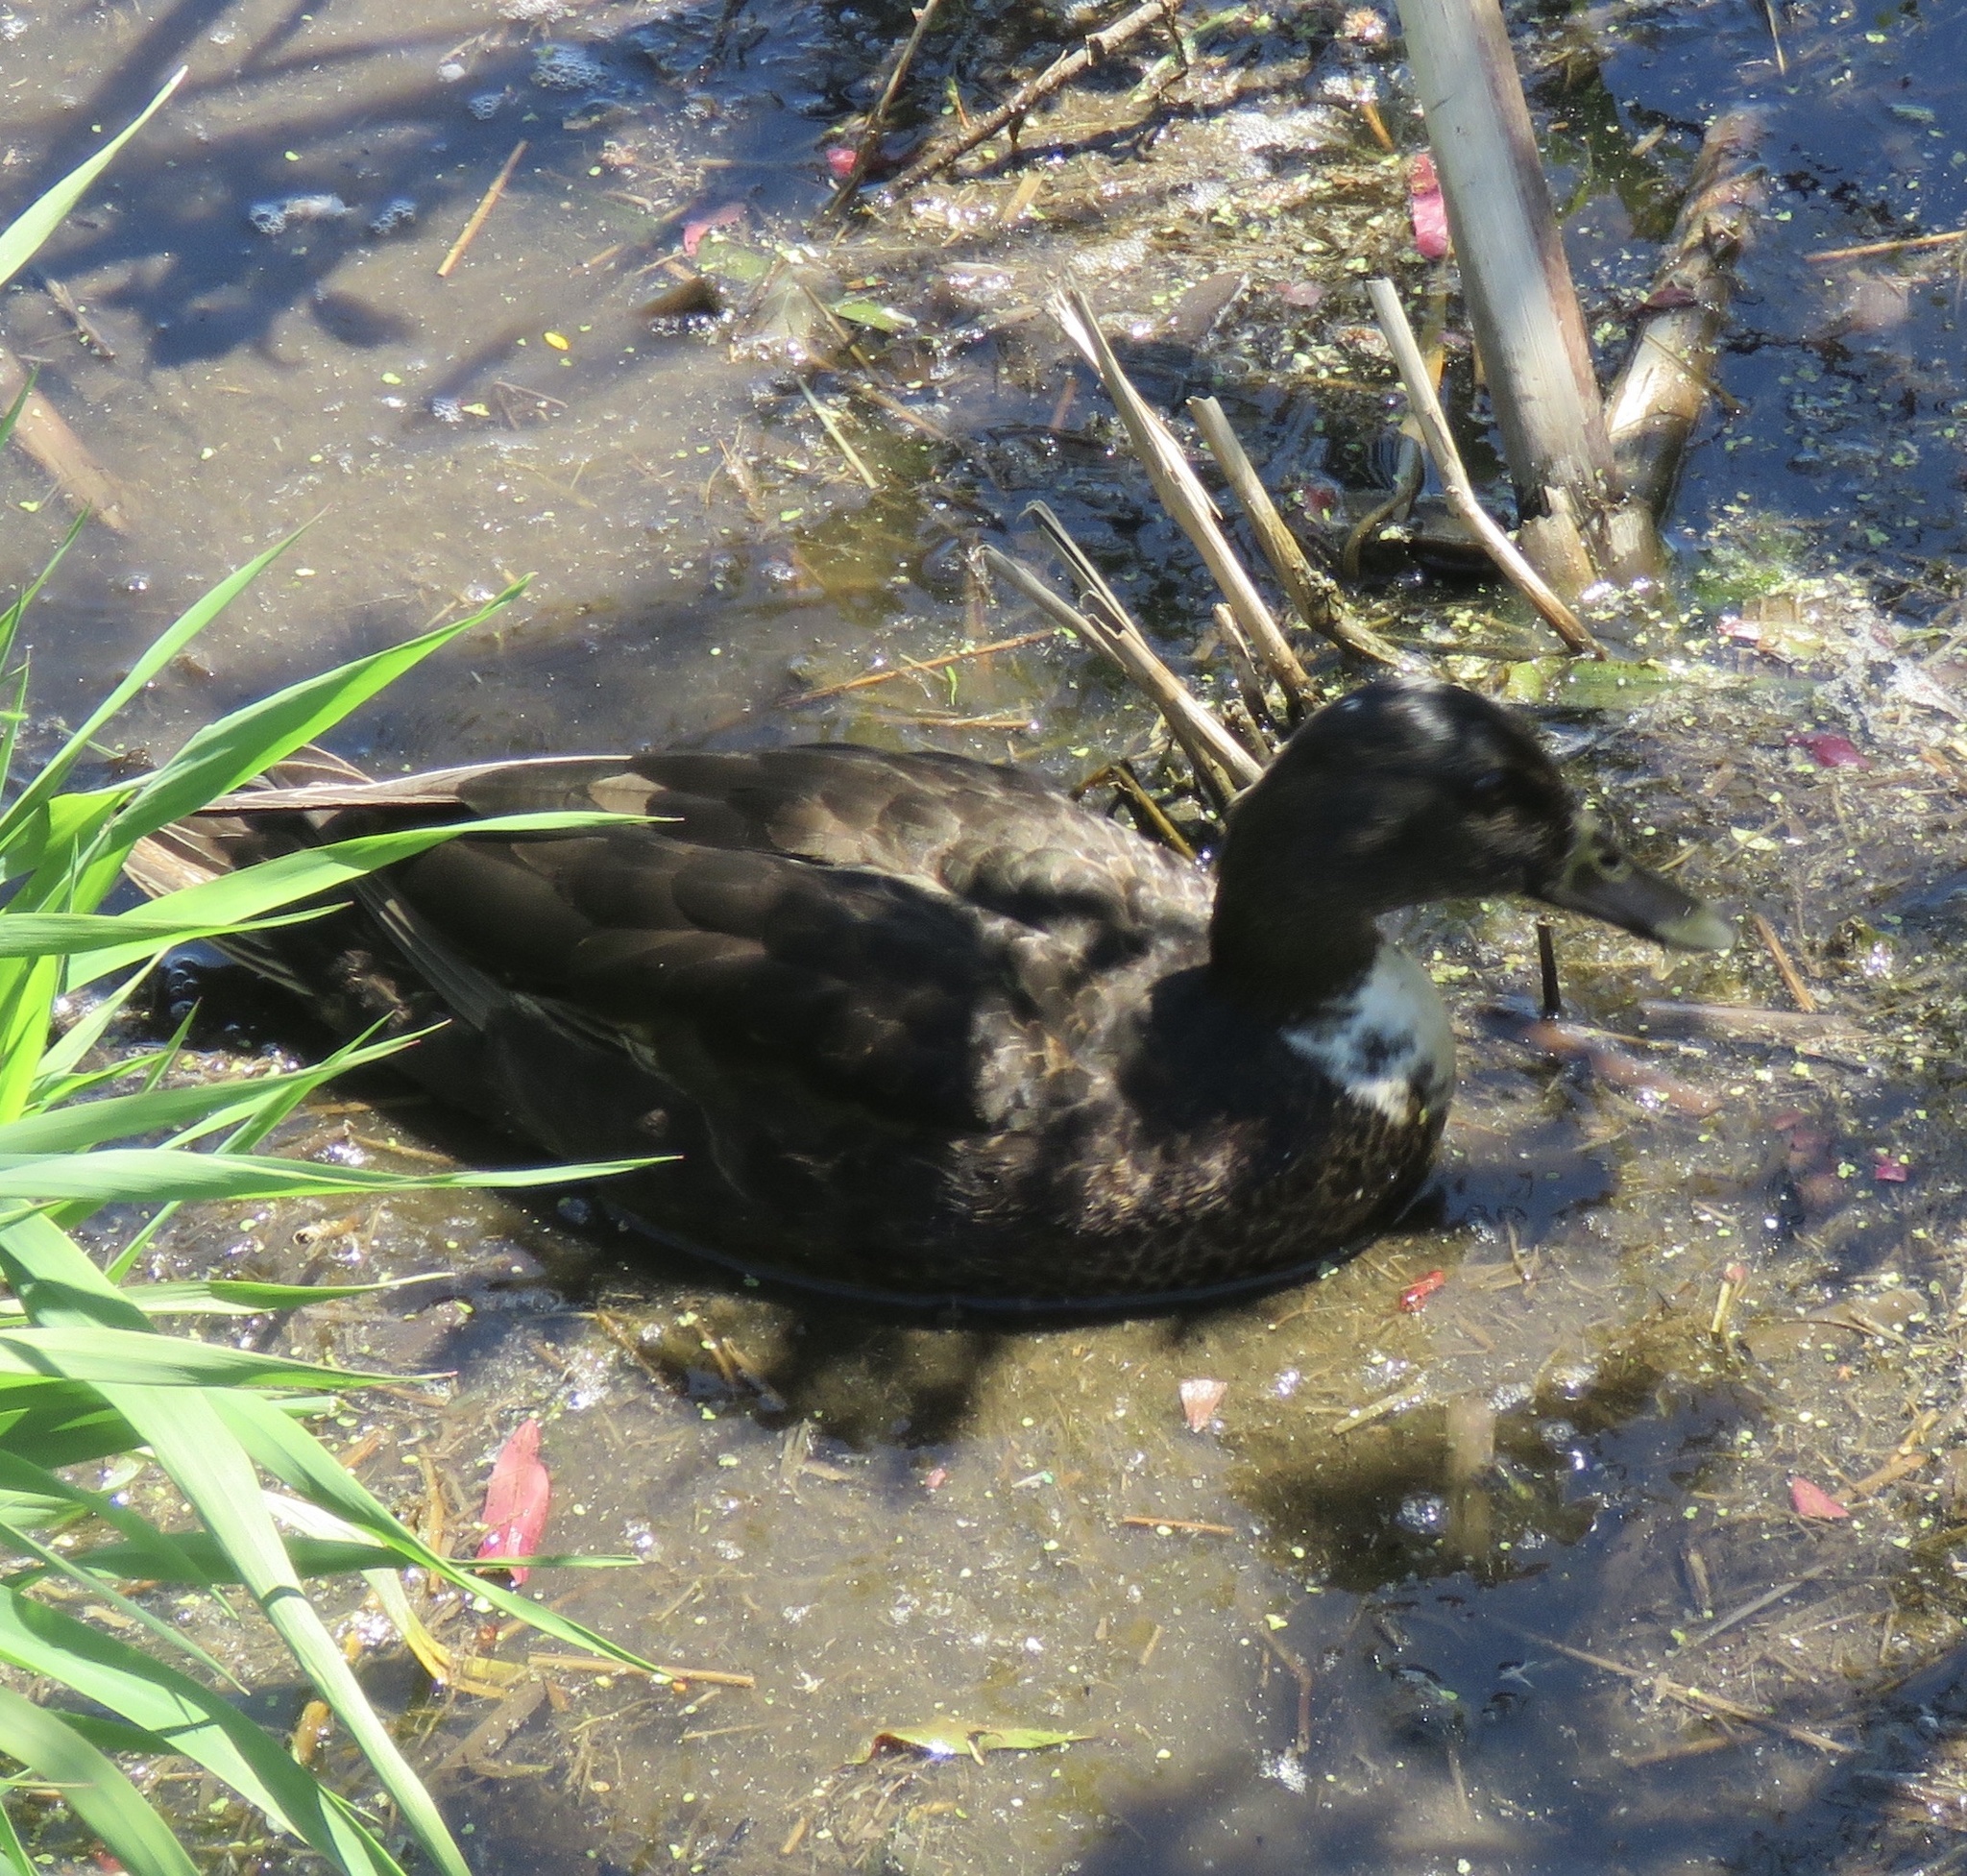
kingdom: Animalia
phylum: Chordata
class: Aves
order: Anseriformes
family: Anatidae
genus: Anas
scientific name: Anas platyrhynchos
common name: Mallard
